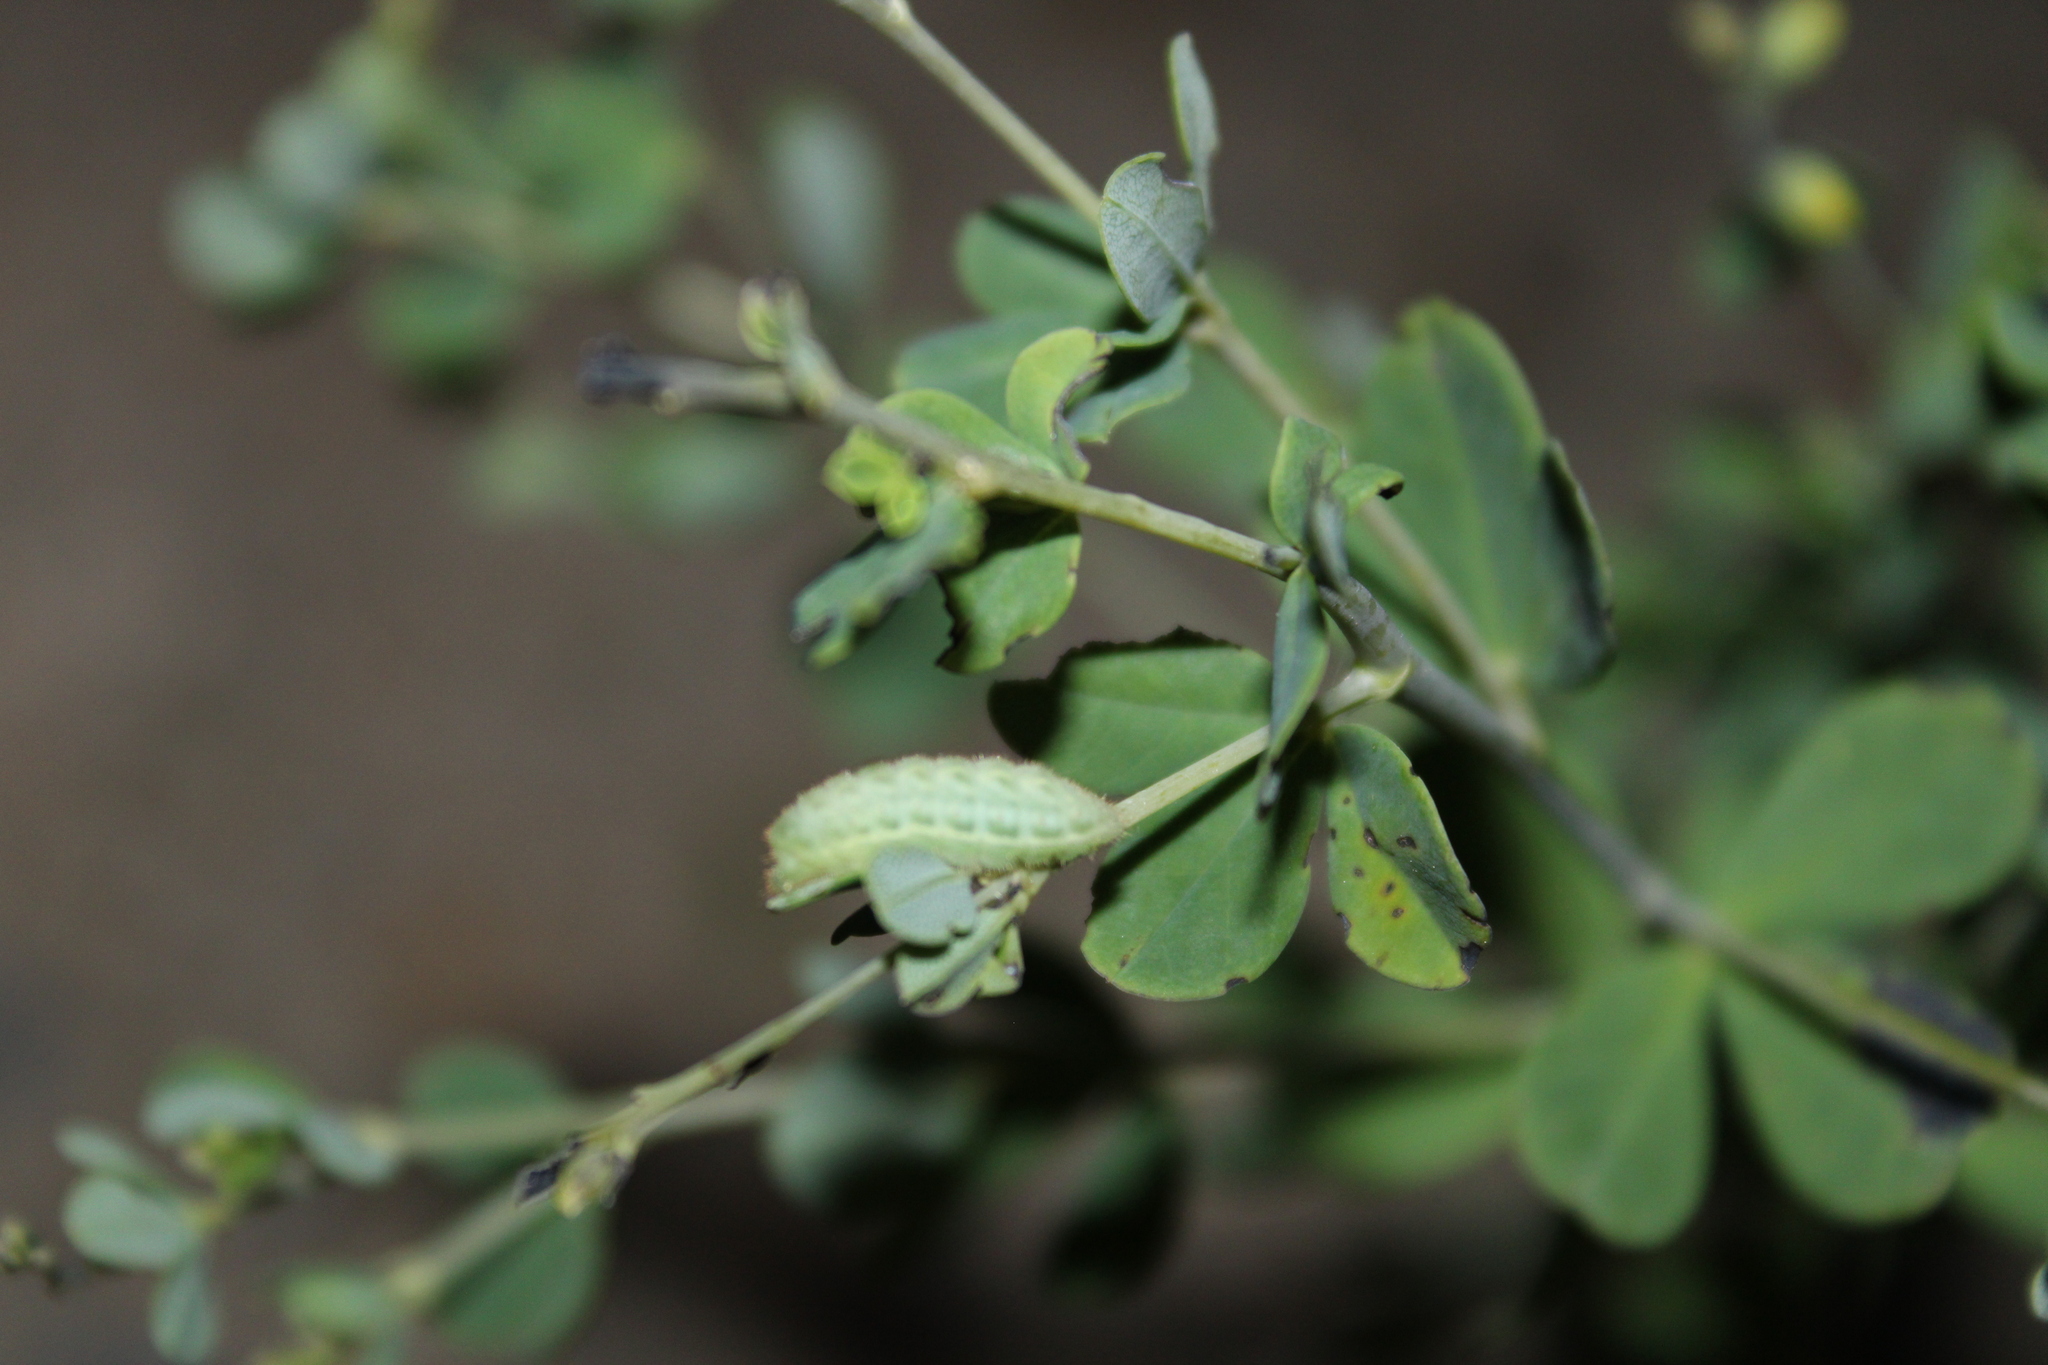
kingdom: Animalia
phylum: Arthropoda
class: Insecta
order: Lepidoptera
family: Lycaenidae
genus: Thecla
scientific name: Thecla irus
